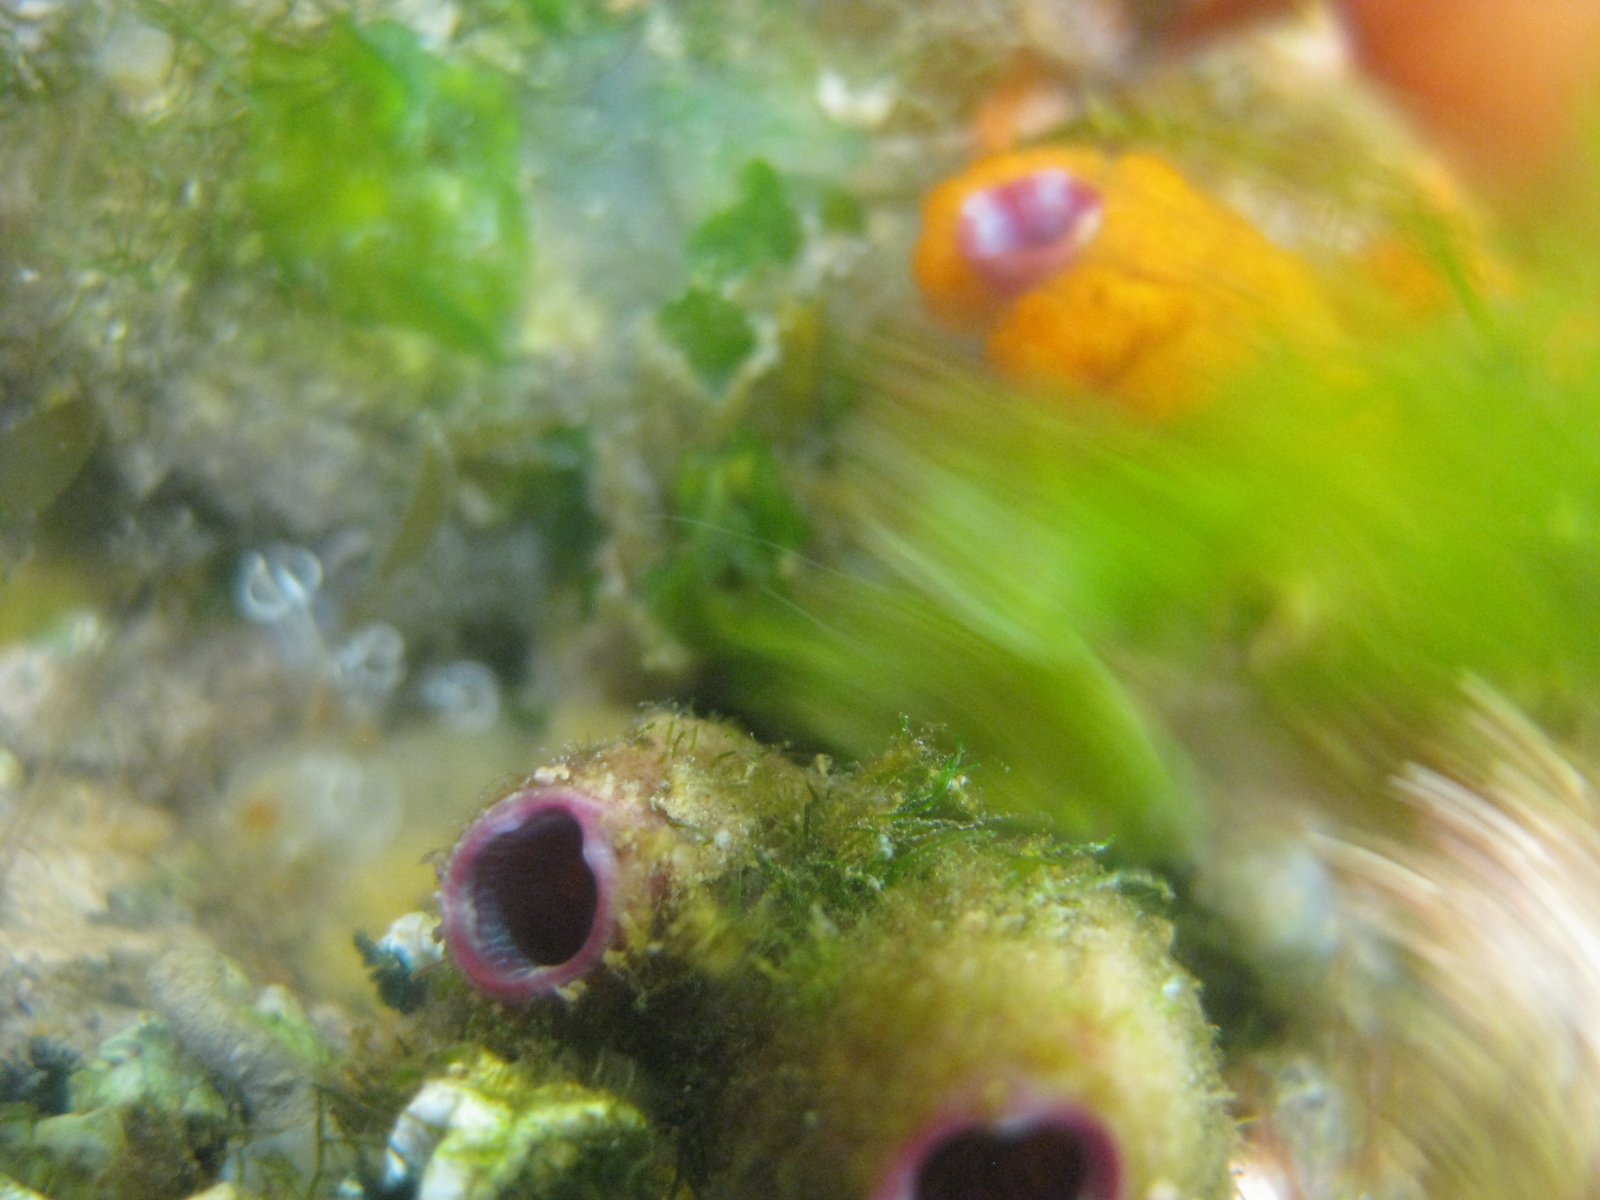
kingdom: Animalia
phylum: Chordata
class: Ascidiacea
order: Stolidobranchia
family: Styelidae
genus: Asterocarpa
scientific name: Asterocarpa humilis
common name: Compass sea squirt
